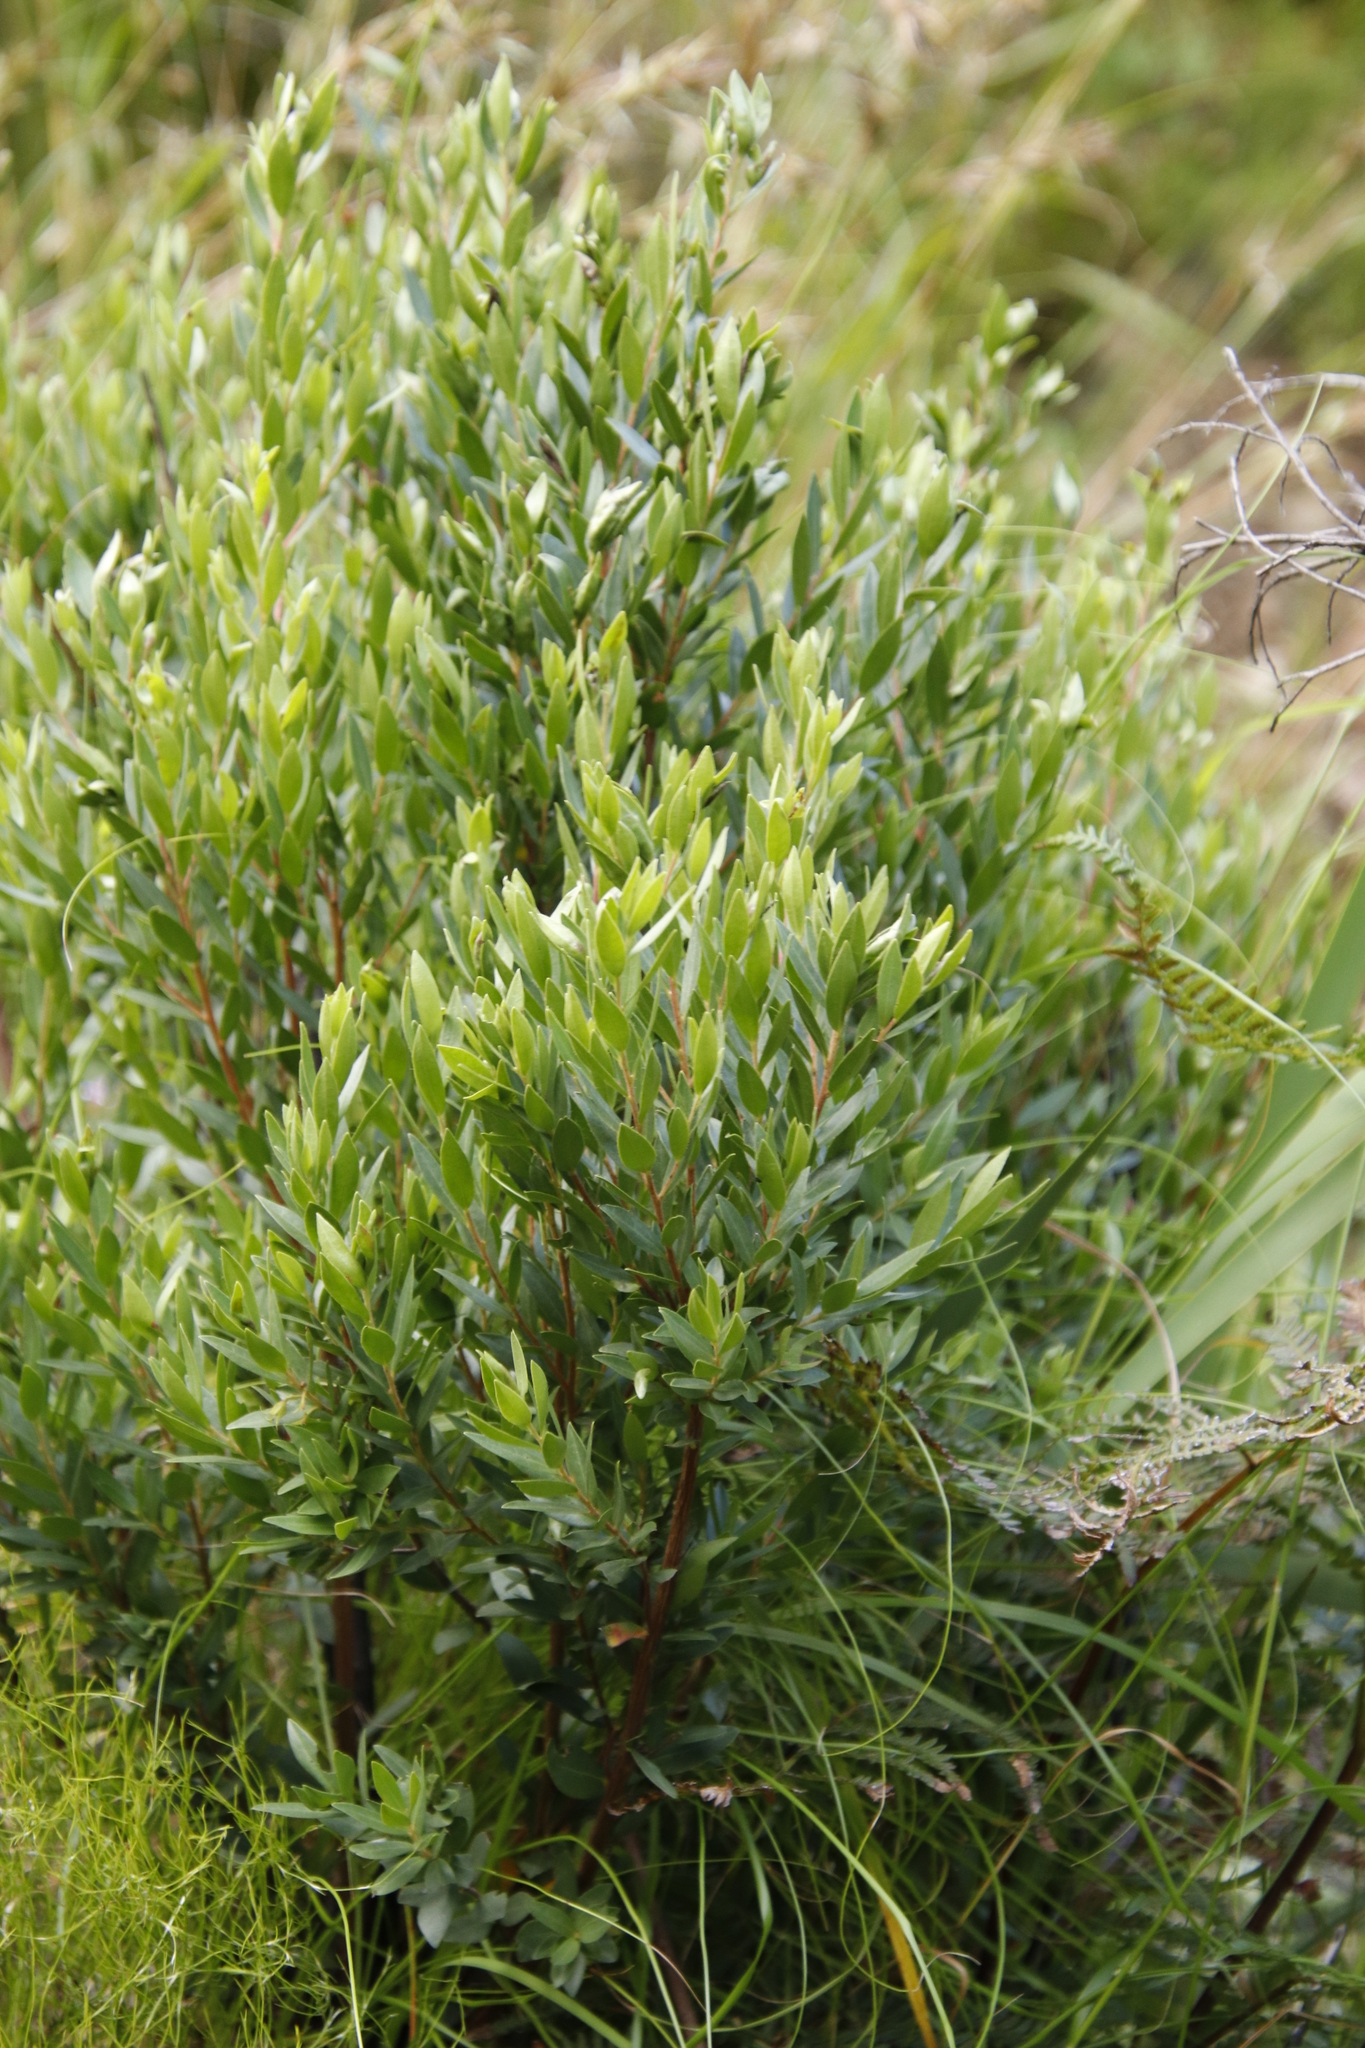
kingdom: Plantae
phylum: Tracheophyta
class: Magnoliopsida
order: Ericales
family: Ebenaceae
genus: Diospyros
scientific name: Diospyros glabra
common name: Fynbos star apple
